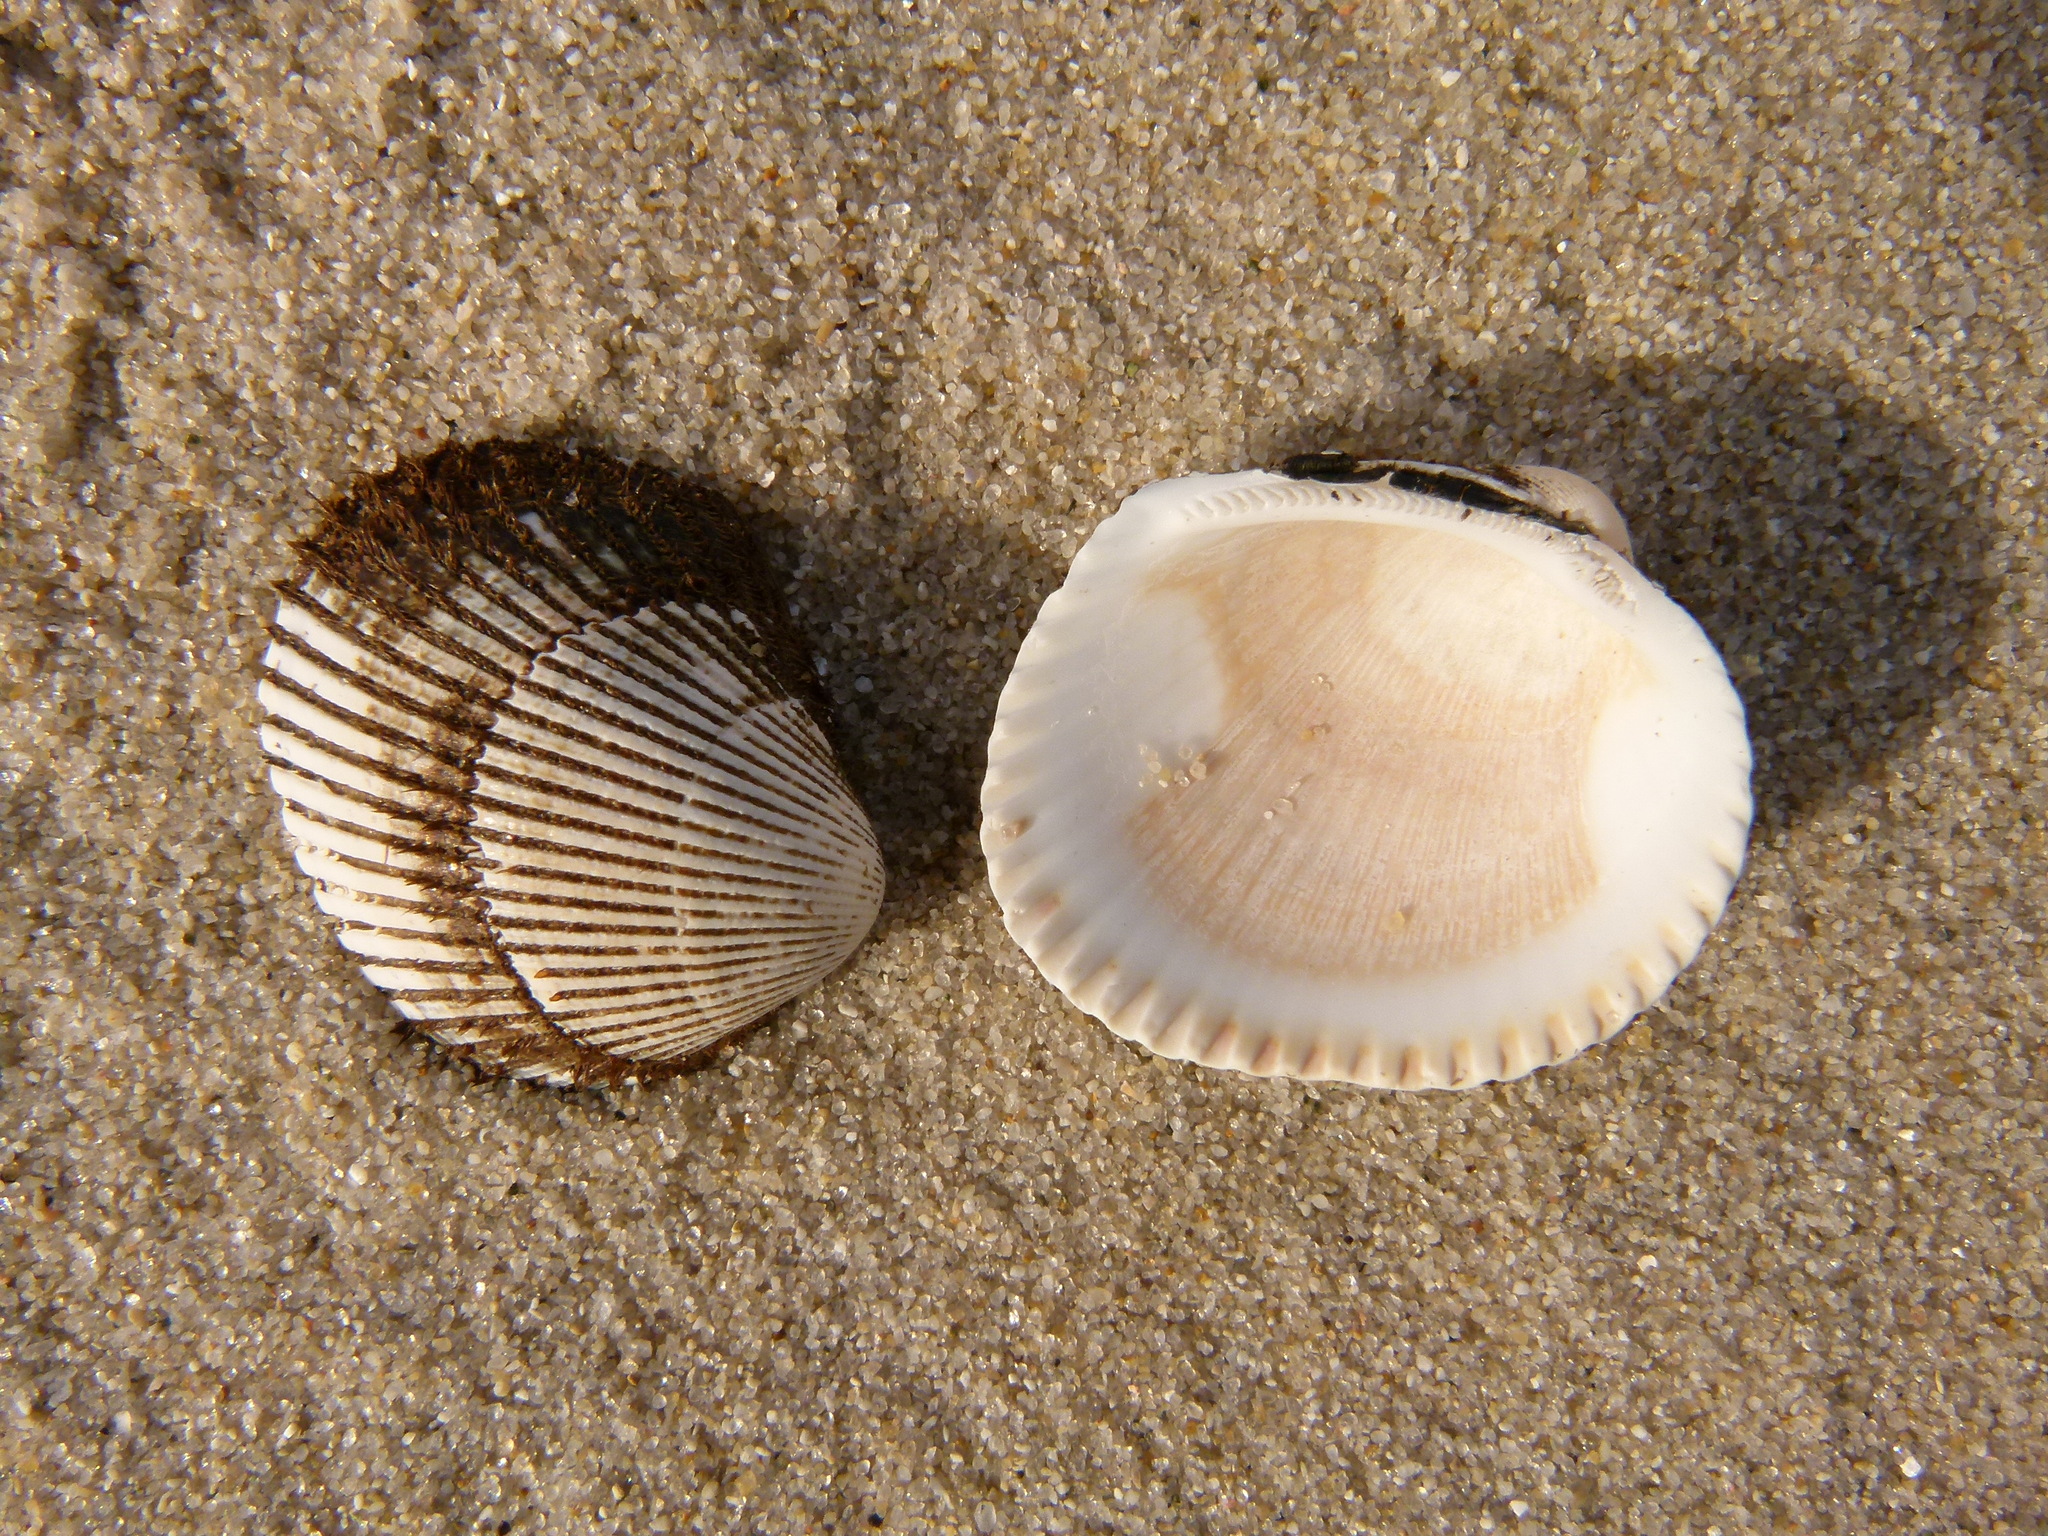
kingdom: Animalia
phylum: Mollusca
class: Bivalvia
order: Arcida
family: Arcidae
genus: Lunarca
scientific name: Lunarca ovalis
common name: Blood ark
